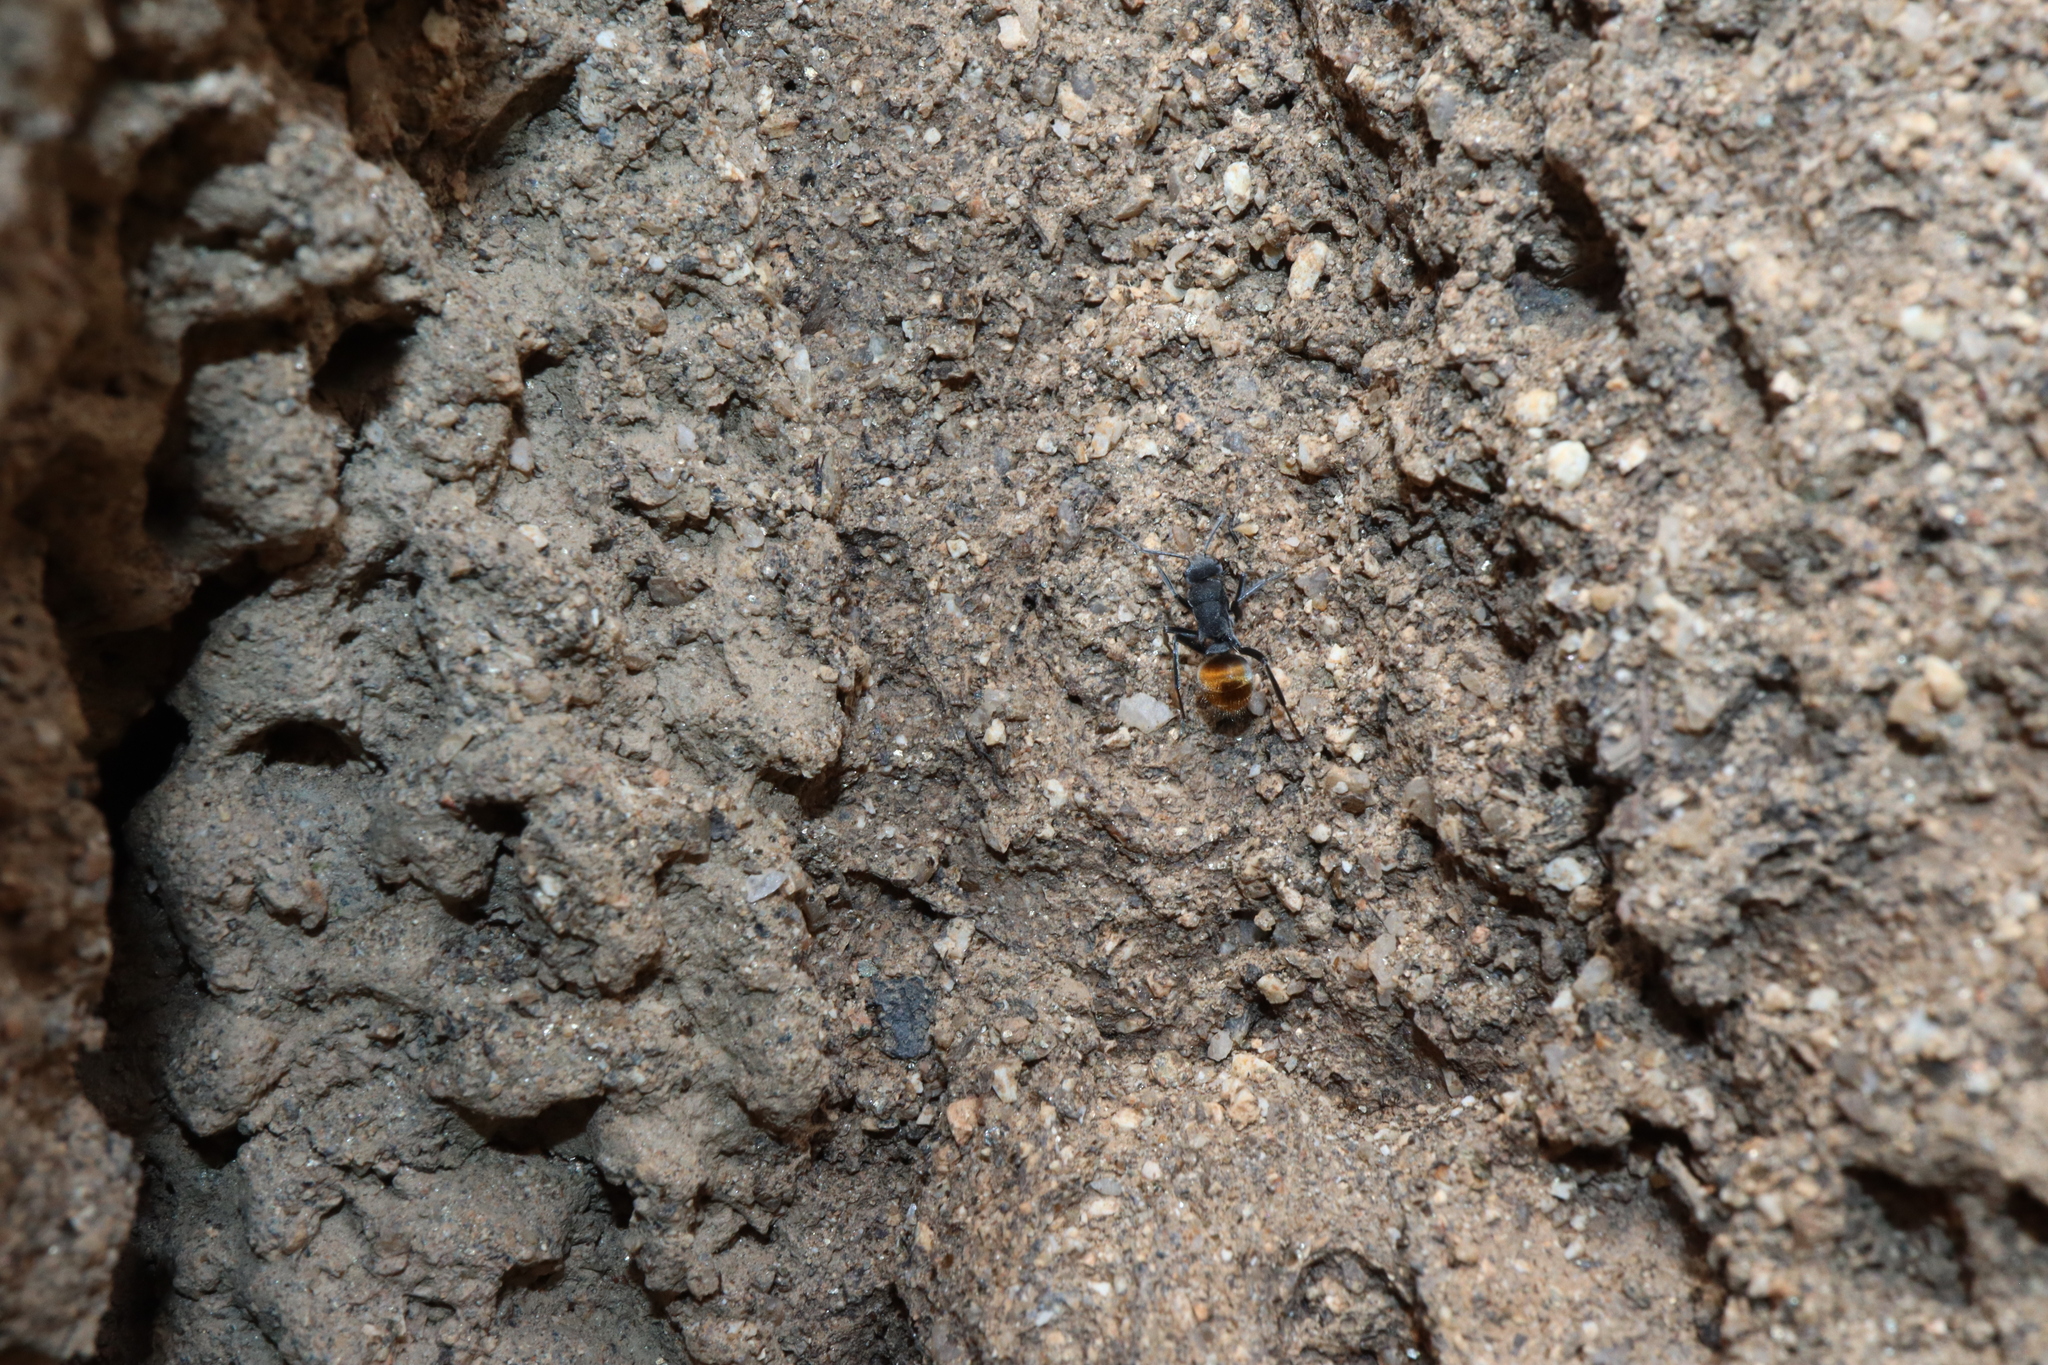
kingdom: Animalia
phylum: Arthropoda
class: Insecta
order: Hymenoptera
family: Formicidae
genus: Polyrhachis
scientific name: Polyrhachis thusnelda
